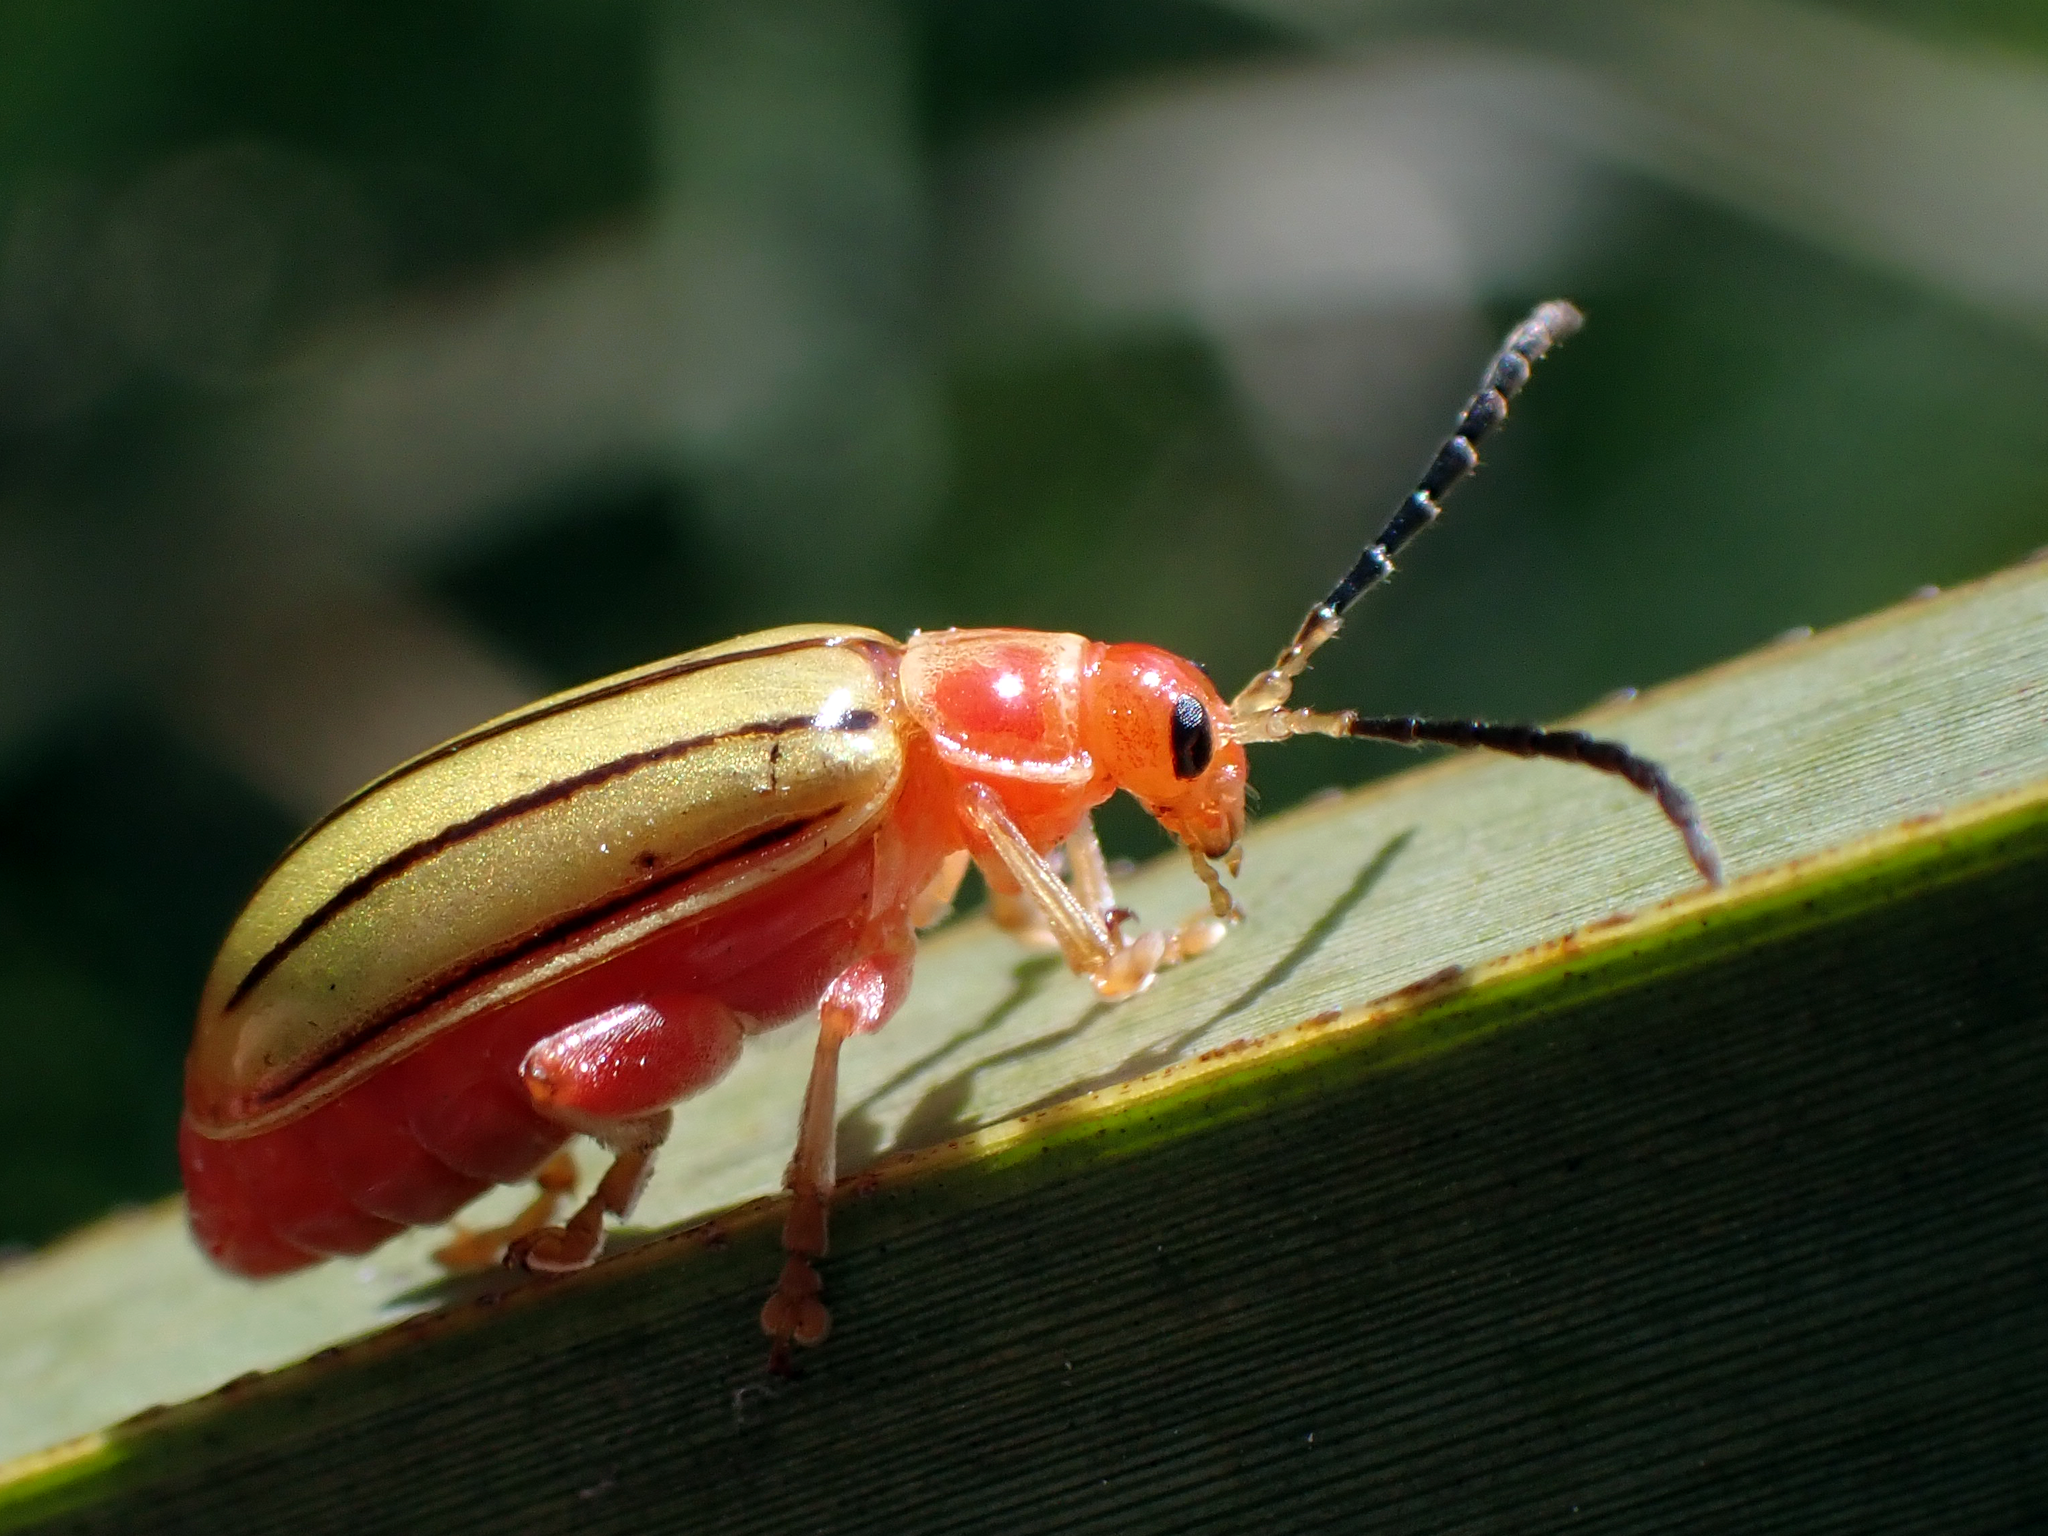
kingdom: Animalia
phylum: Arthropoda
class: Insecta
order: Coleoptera
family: Chrysomelidae
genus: Disonycha
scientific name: Disonycha
